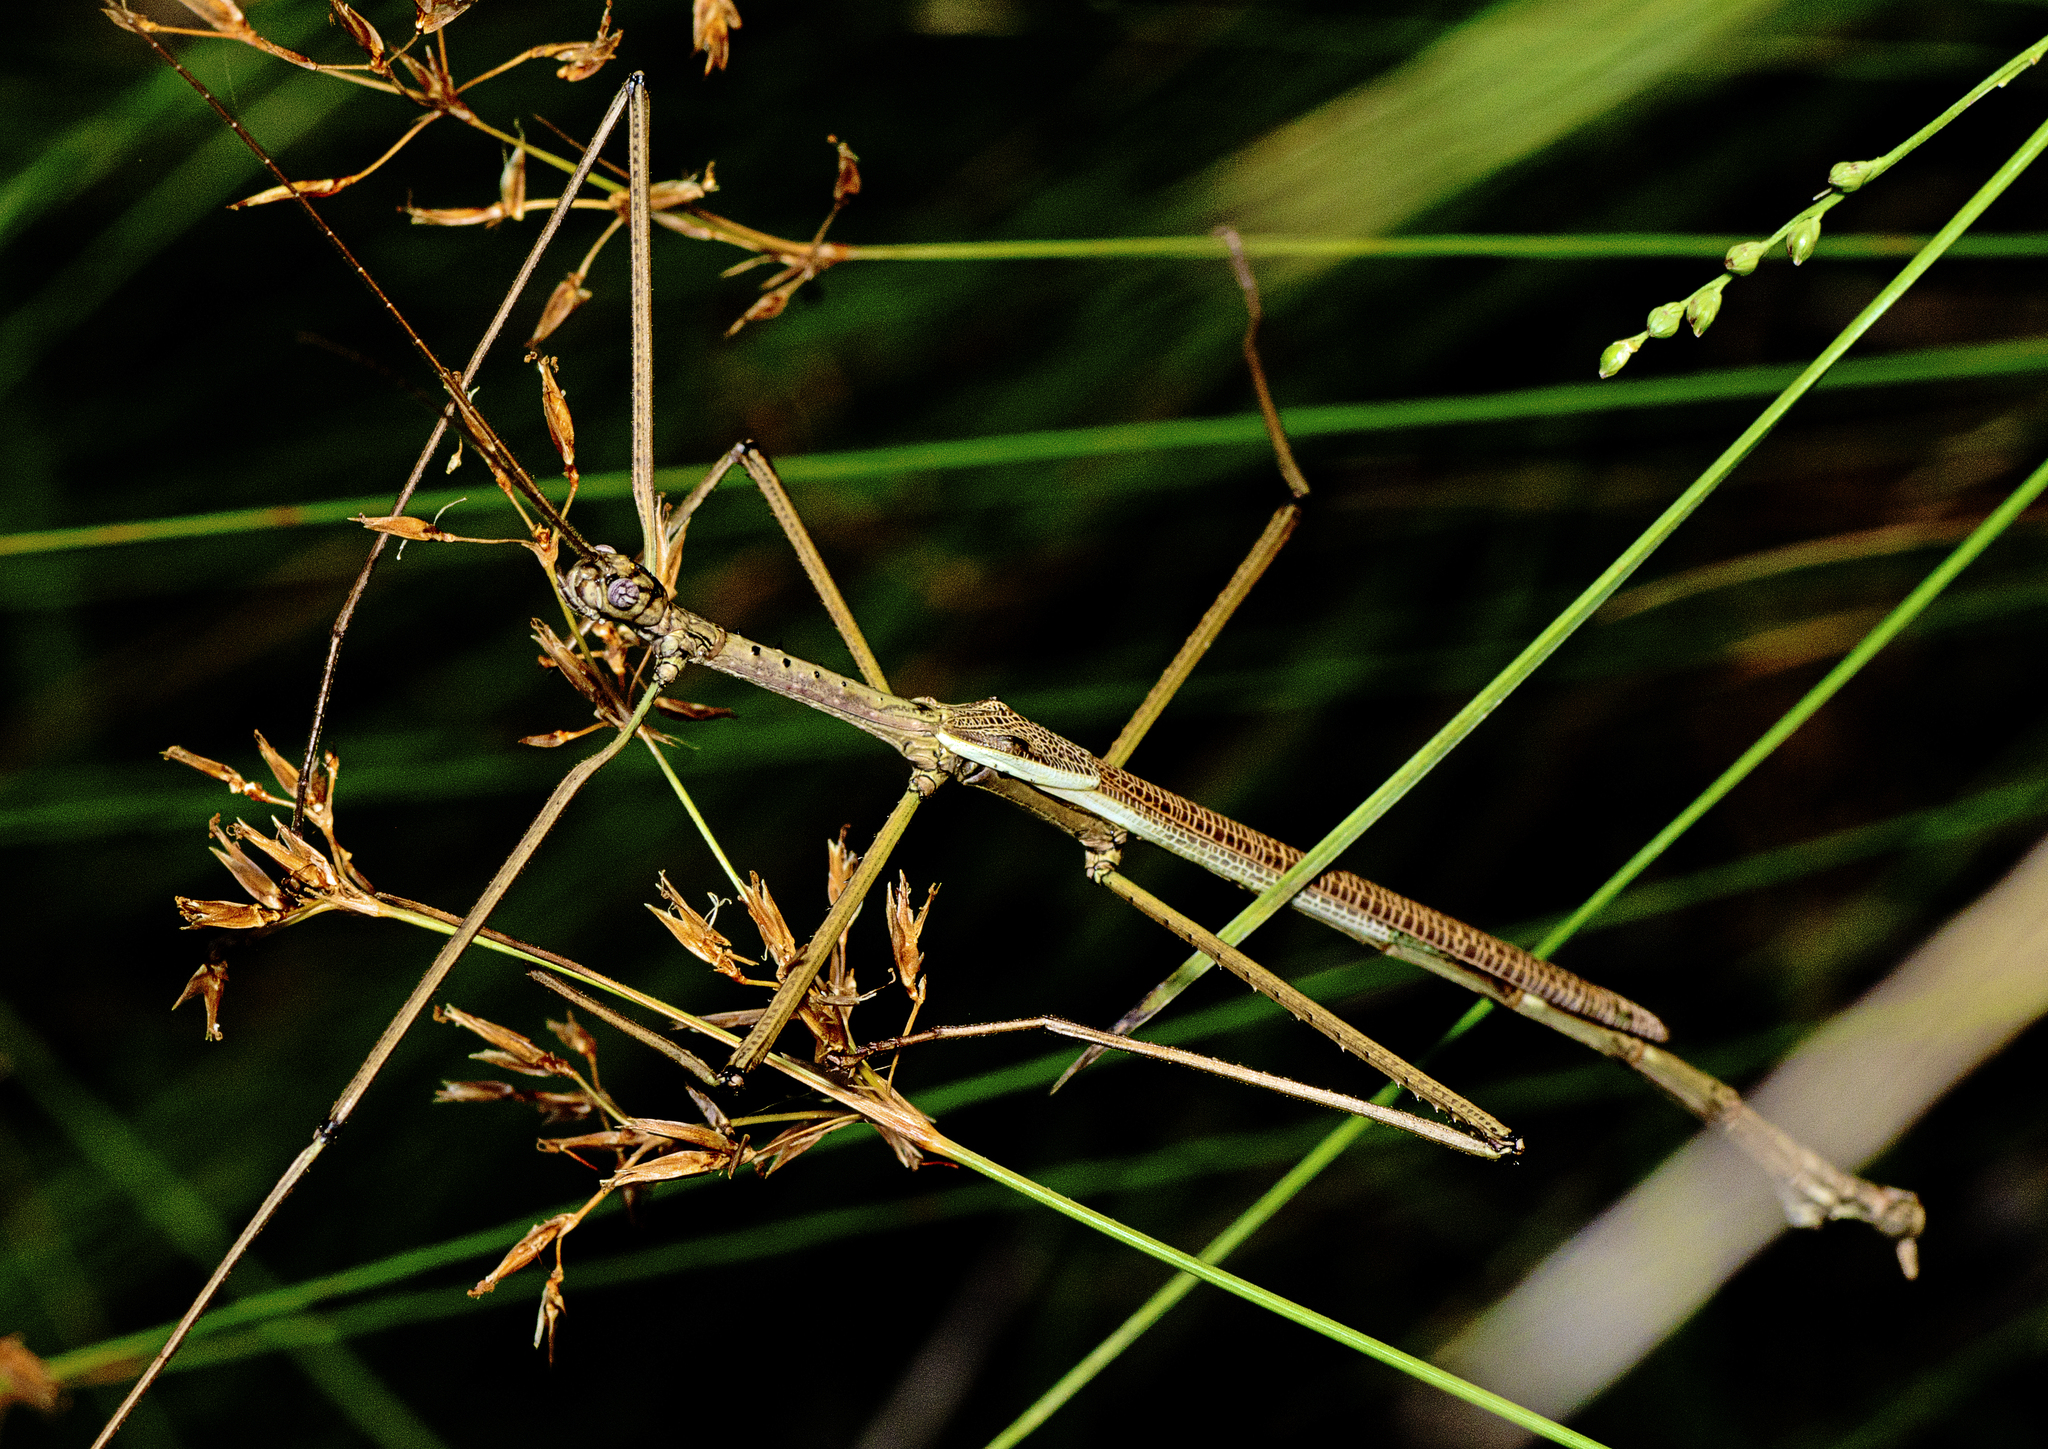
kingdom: Animalia
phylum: Arthropoda
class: Insecta
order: Phasmida
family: Phasmatidae
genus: Anchiale
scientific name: Anchiale austrotessulata
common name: Tessellated stick-insect
